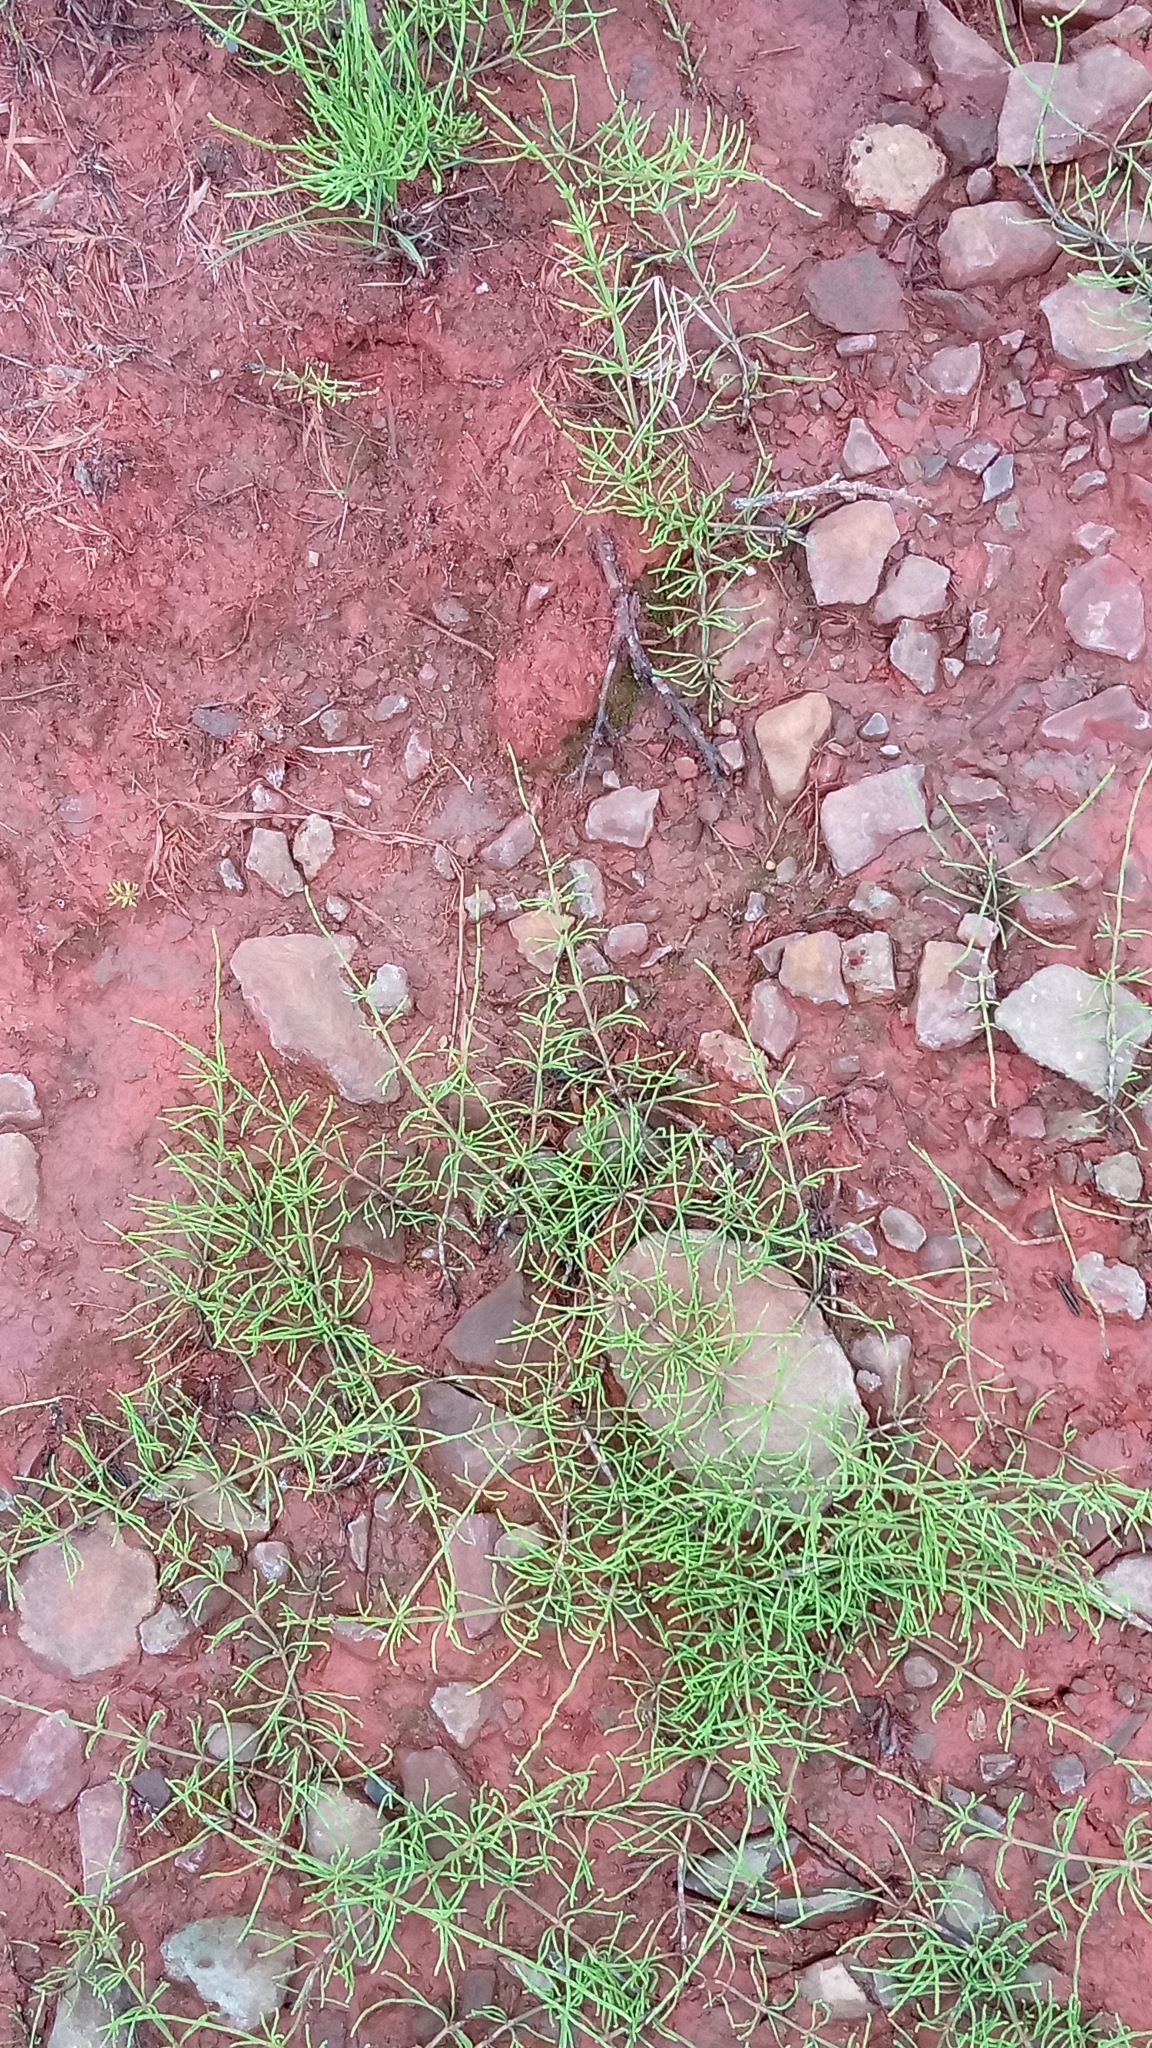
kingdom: Plantae
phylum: Tracheophyta
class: Polypodiopsida
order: Equisetales
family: Equisetaceae
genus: Equisetum
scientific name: Equisetum arvense
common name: Field horsetail
